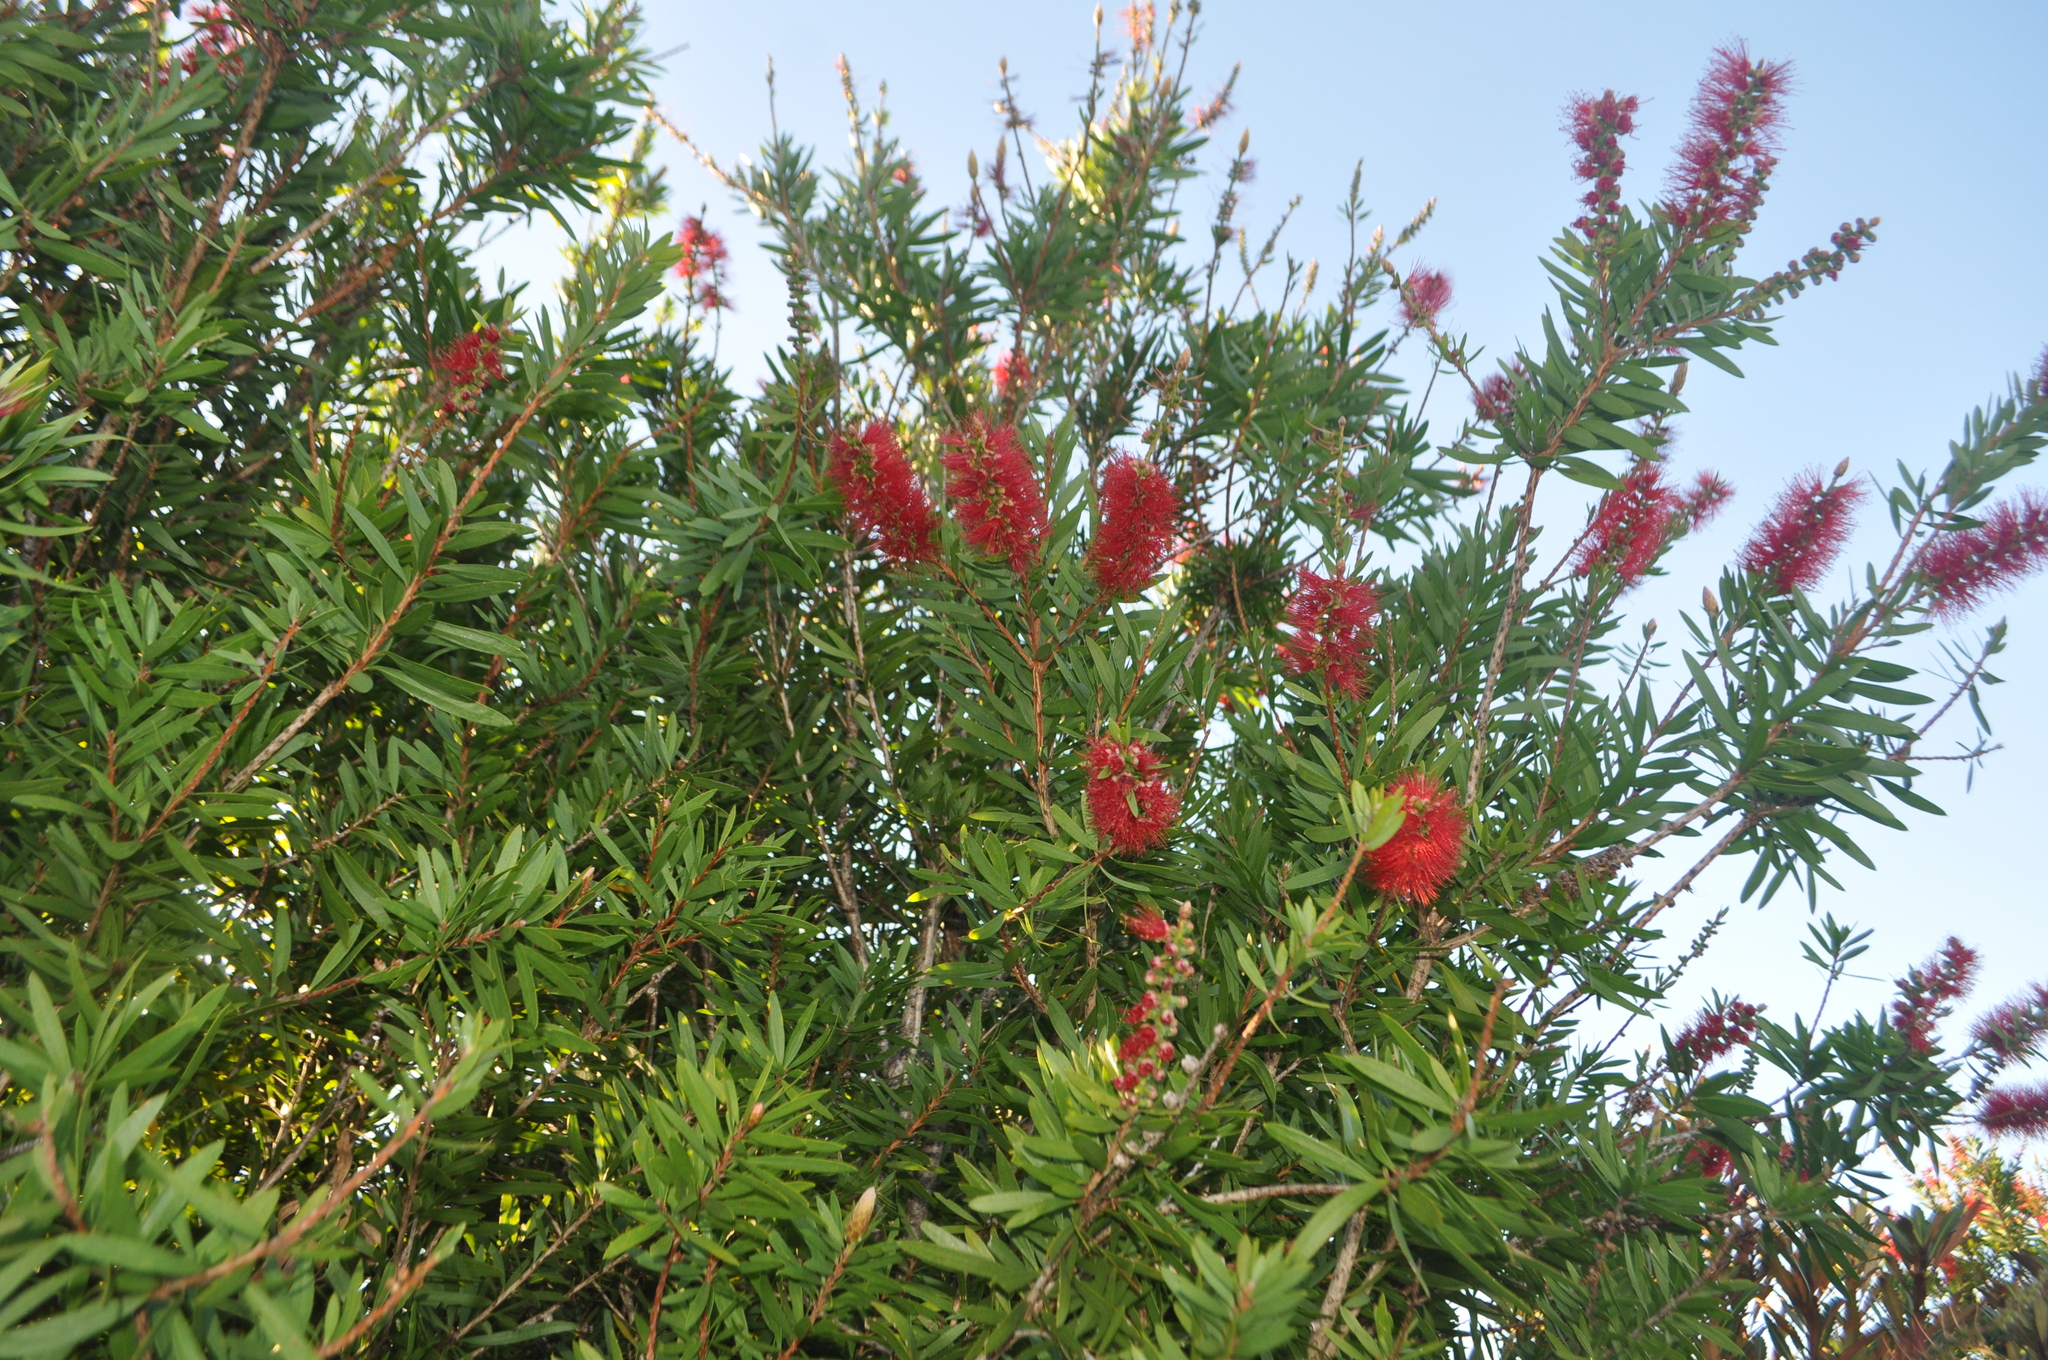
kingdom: Plantae
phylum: Tracheophyta
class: Magnoliopsida
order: Myrtales
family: Myrtaceae
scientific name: Myrtaceae
